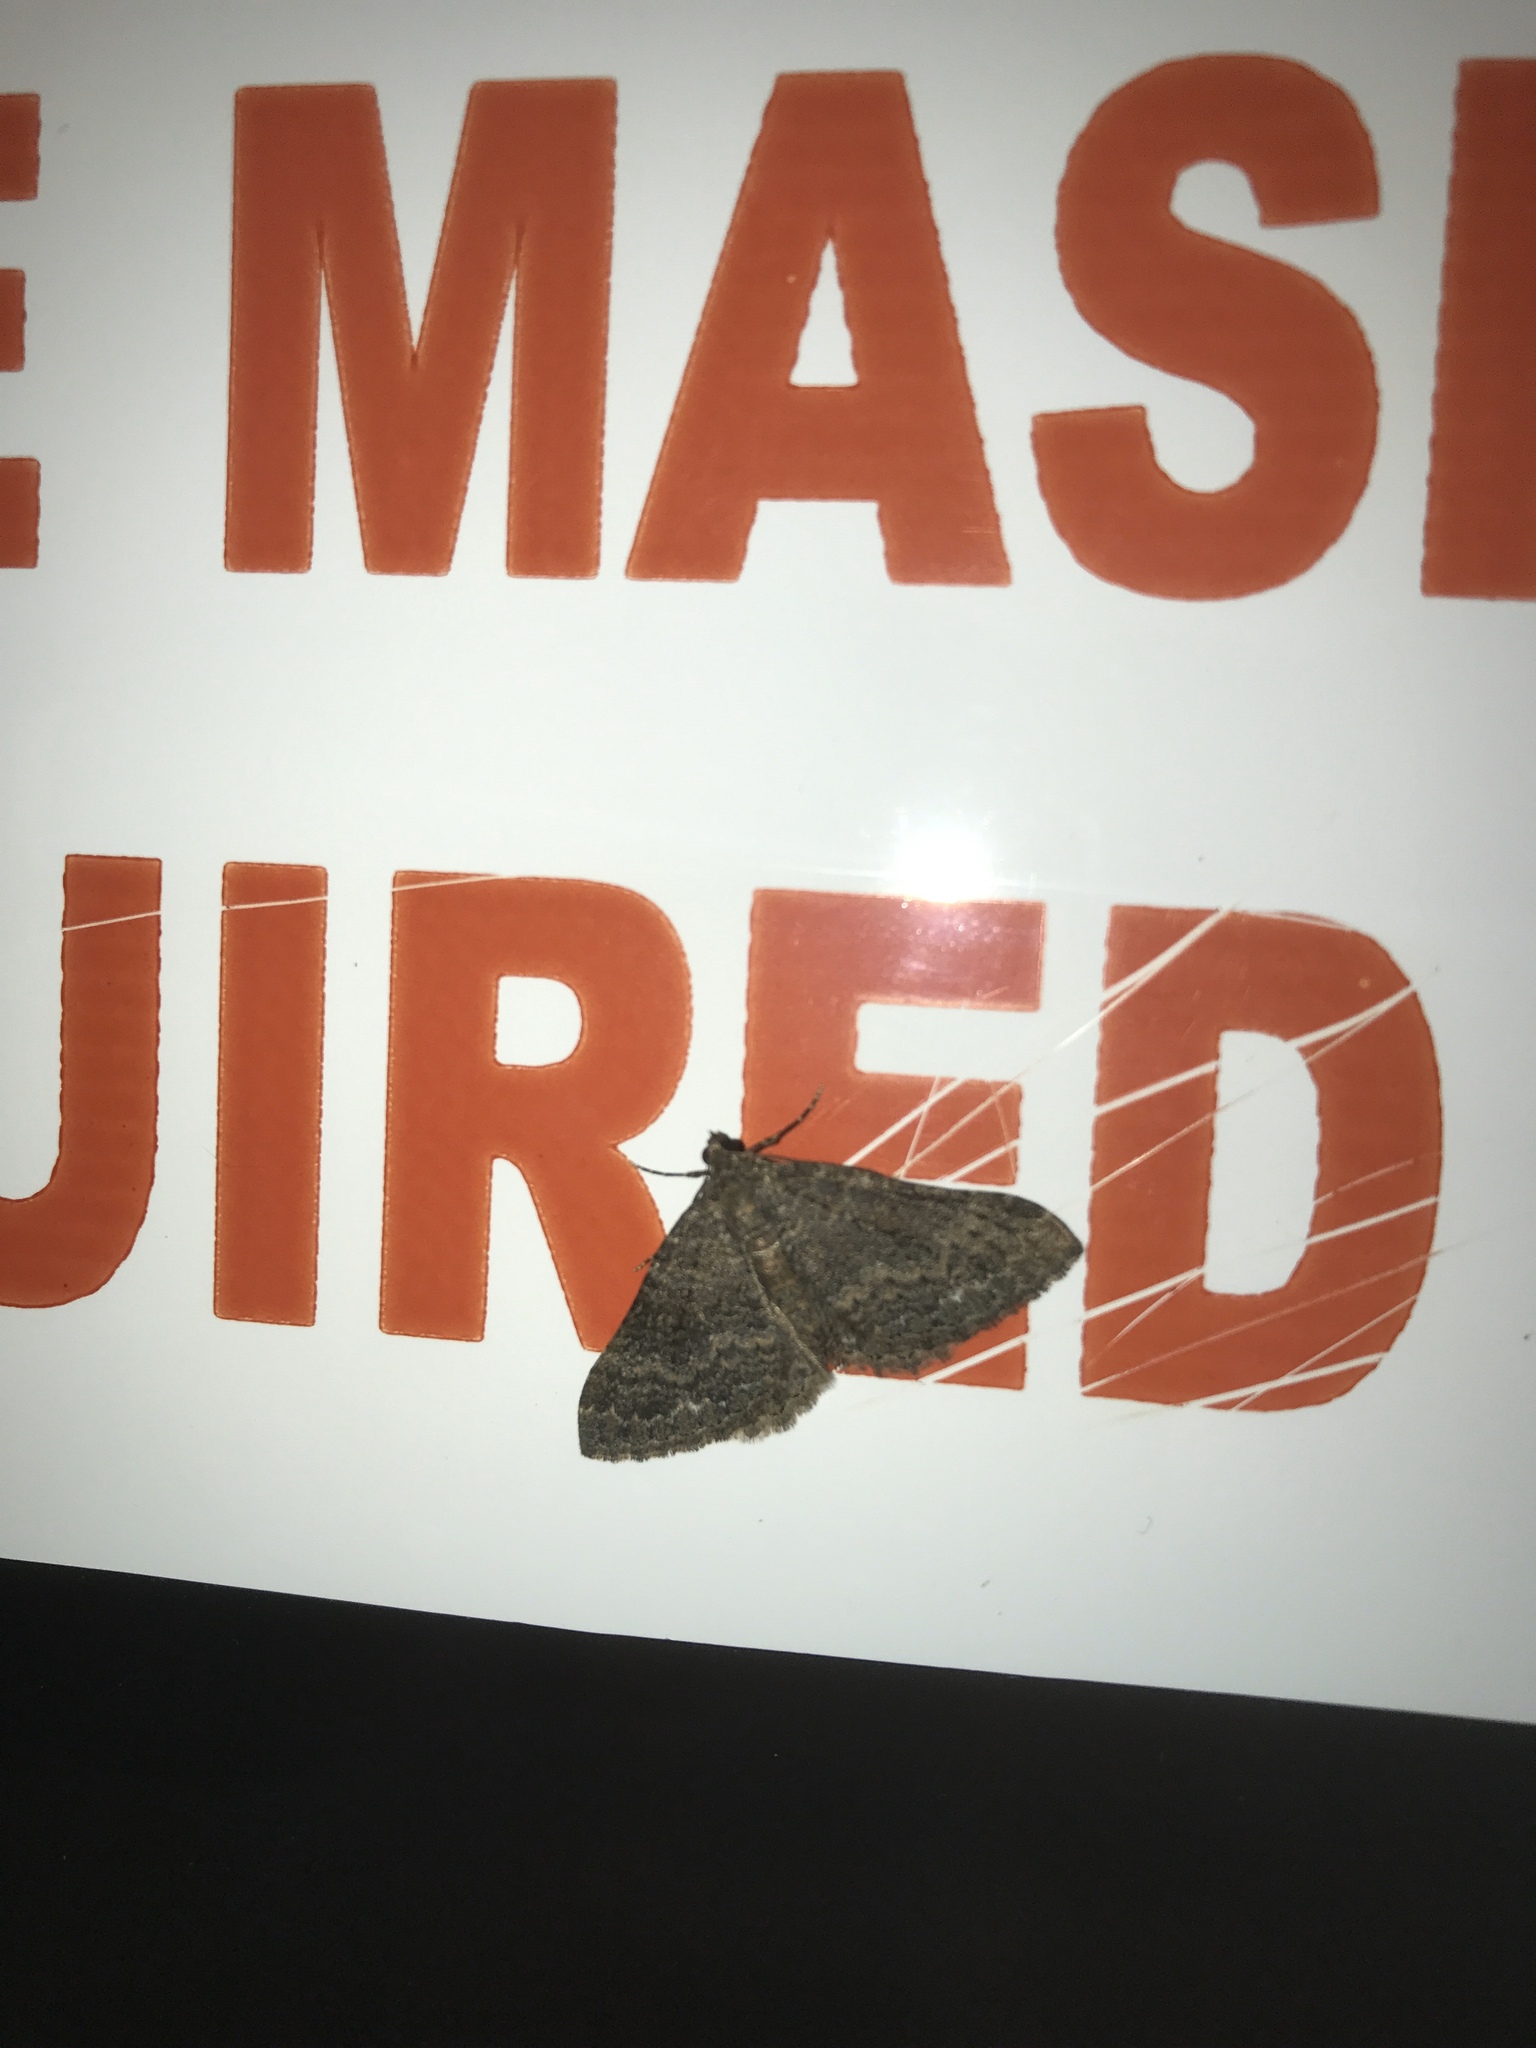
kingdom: Animalia
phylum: Arthropoda
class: Insecta
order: Lepidoptera
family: Geometridae
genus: Archirhoe
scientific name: Archirhoe neomexicana
